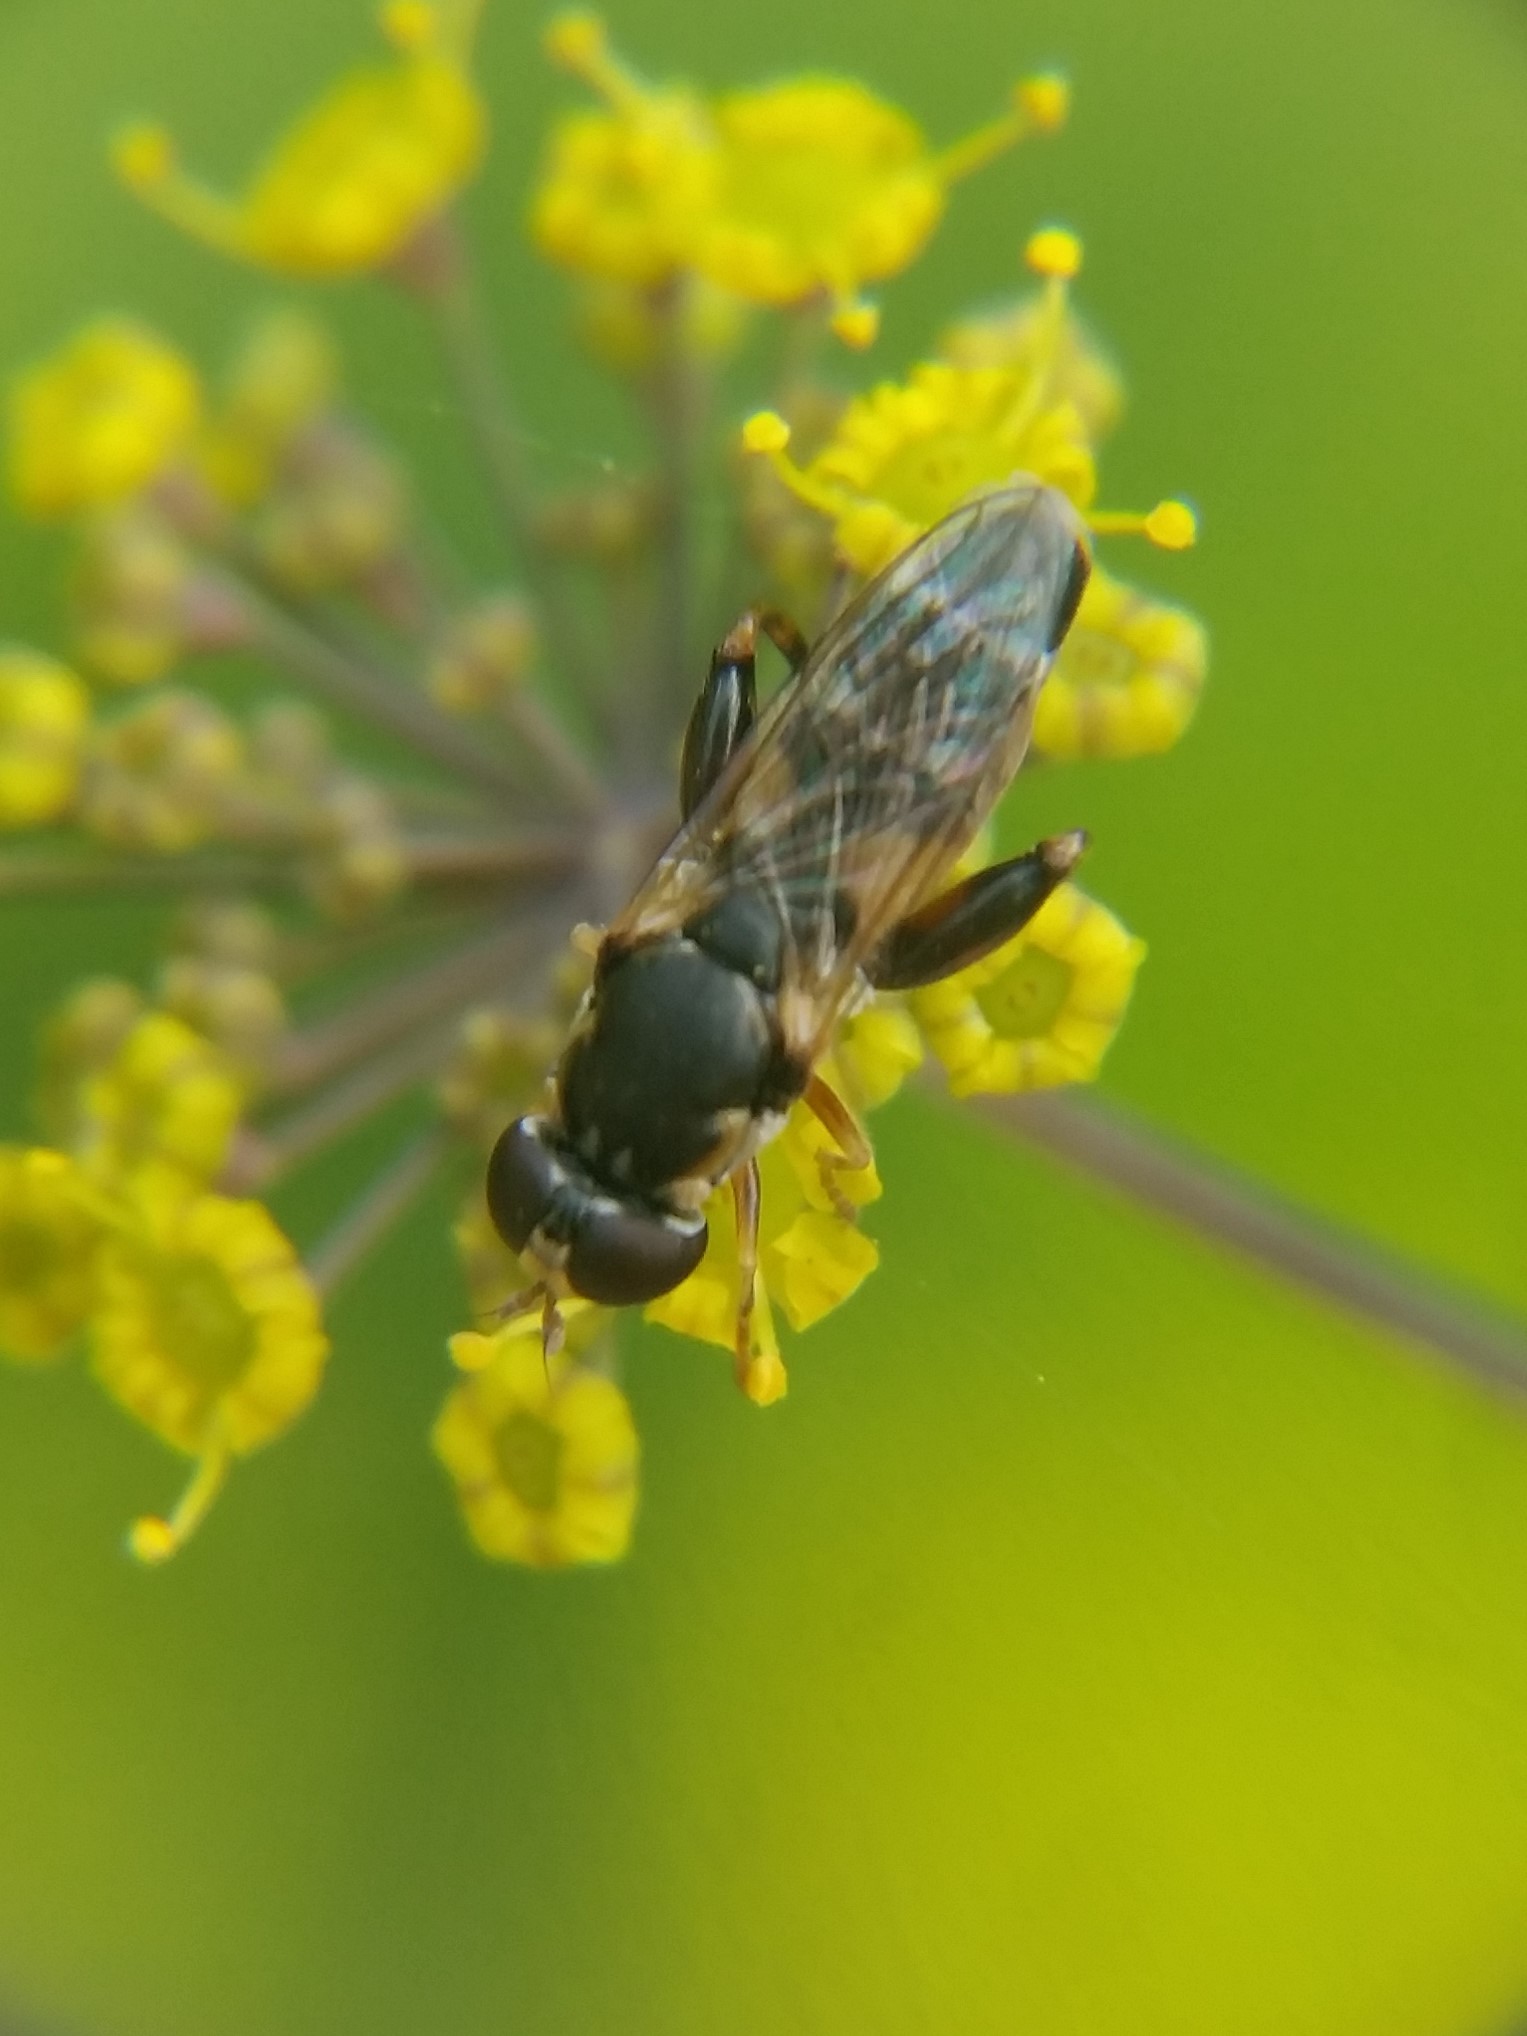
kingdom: Animalia
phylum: Arthropoda
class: Insecta
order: Diptera
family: Syrphidae
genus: Syritta
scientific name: Syritta pipiens
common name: Hover fly
